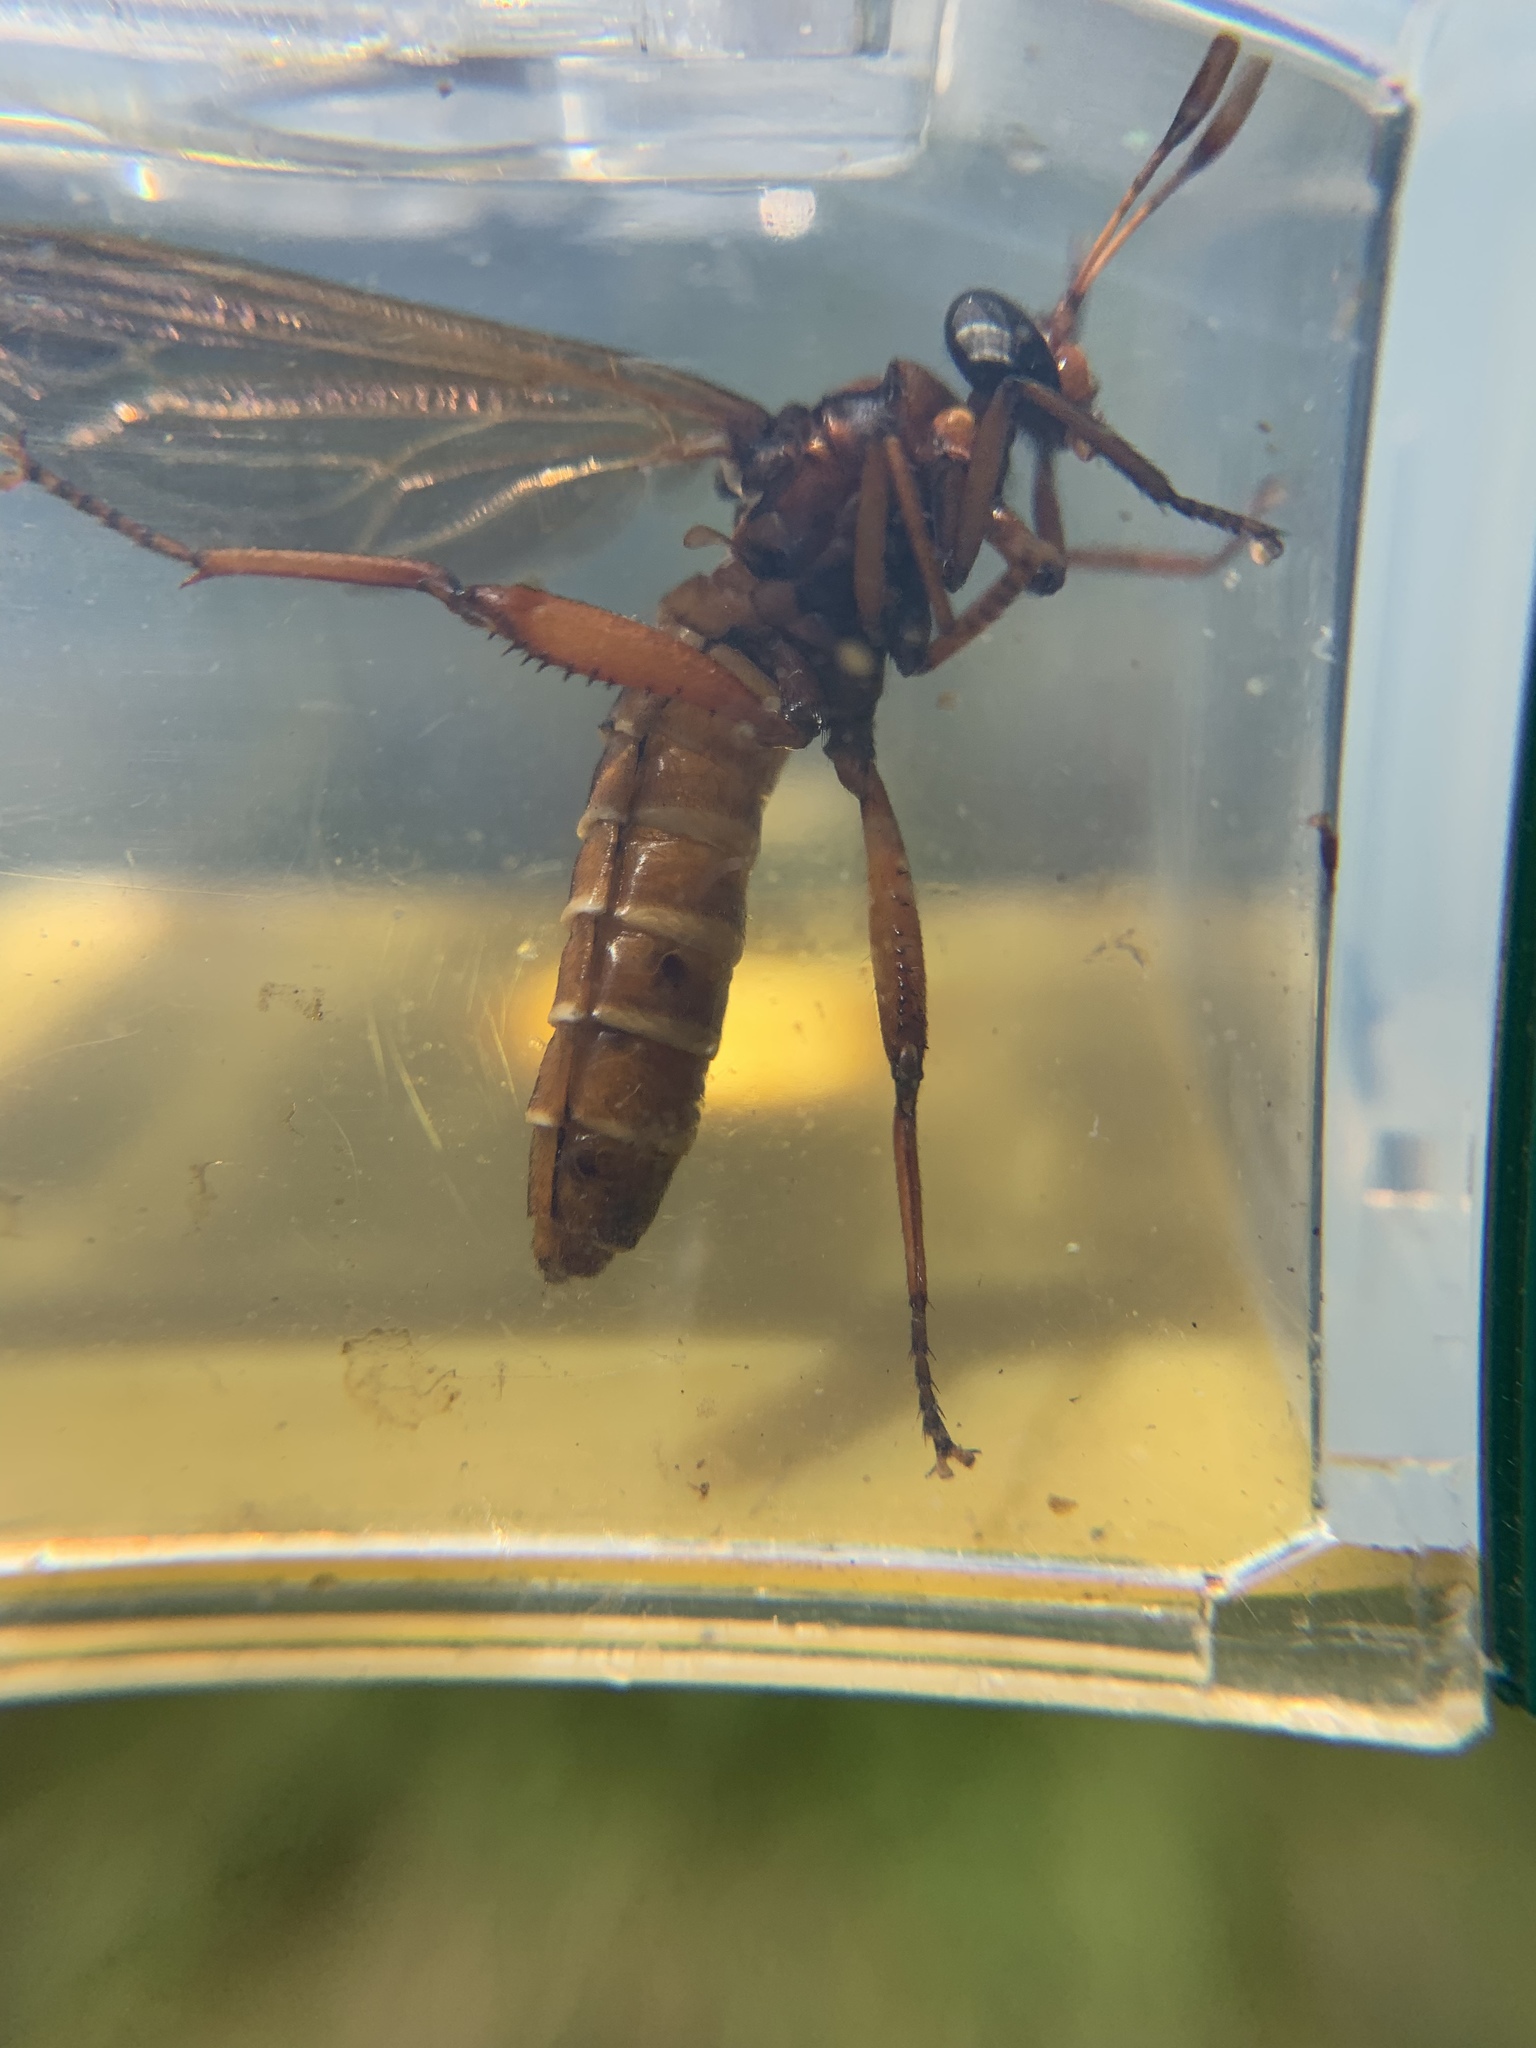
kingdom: Animalia
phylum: Arthropoda
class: Insecta
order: Diptera
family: Mydidae
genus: Mydas
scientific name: Mydas maculiventris
